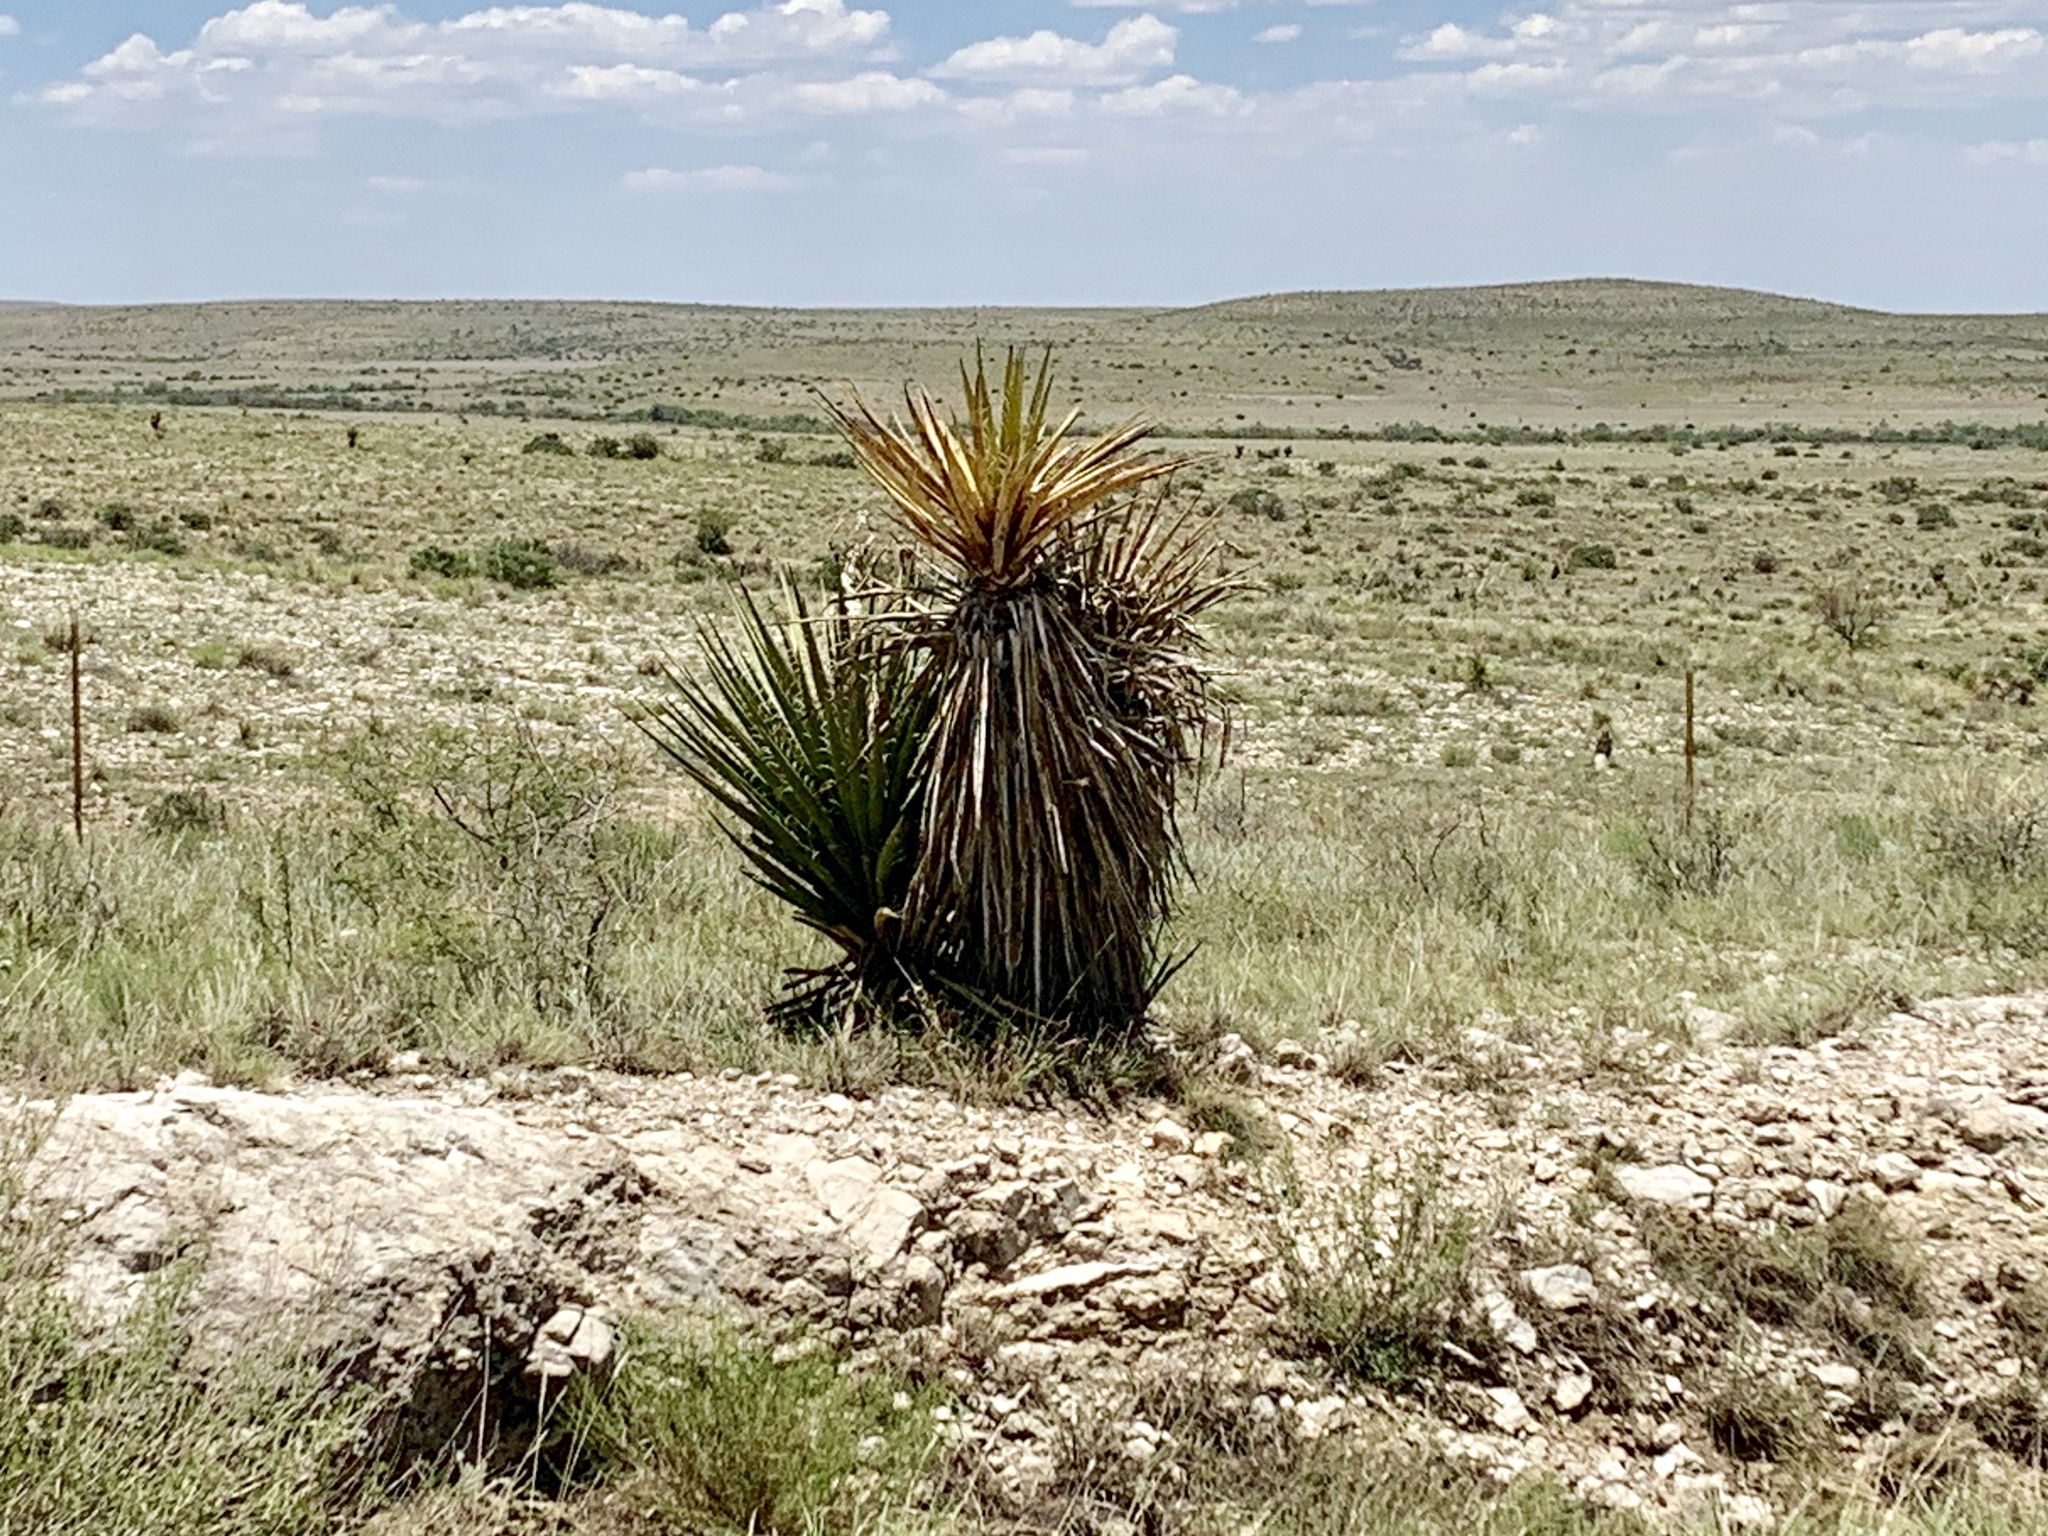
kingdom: Plantae
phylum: Tracheophyta
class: Liliopsida
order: Asparagales
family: Asparagaceae
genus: Yucca
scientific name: Yucca treculiana
